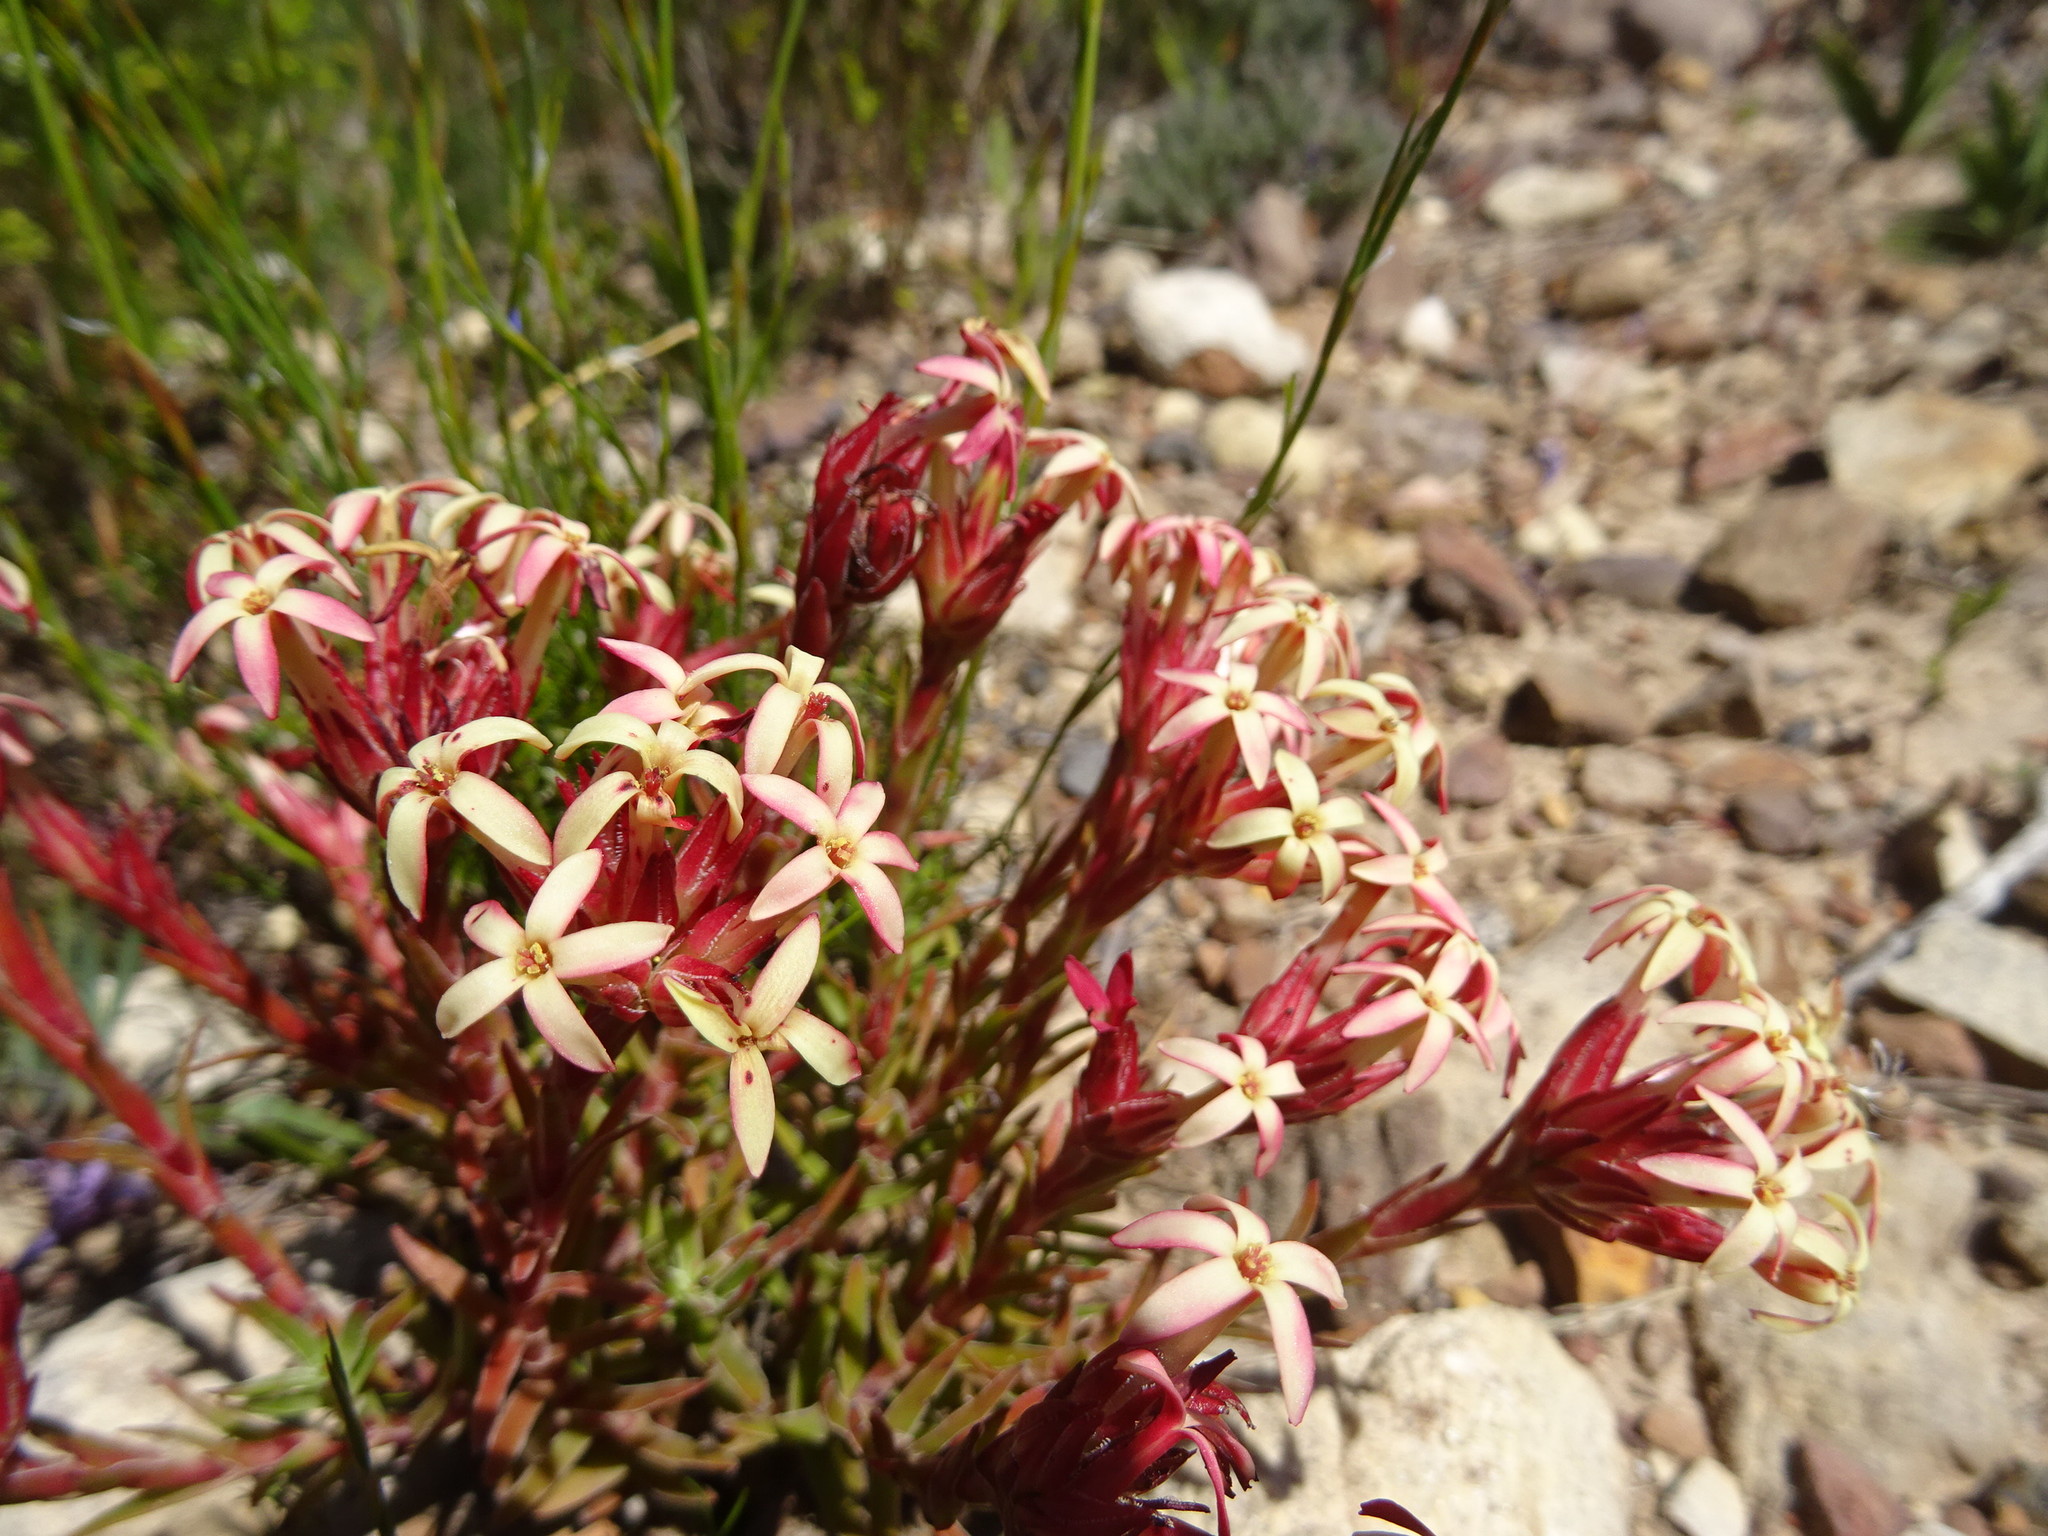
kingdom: Plantae
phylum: Tracheophyta
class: Magnoliopsida
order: Saxifragales
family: Crassulaceae
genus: Crassula
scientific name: Crassula fascicularis
